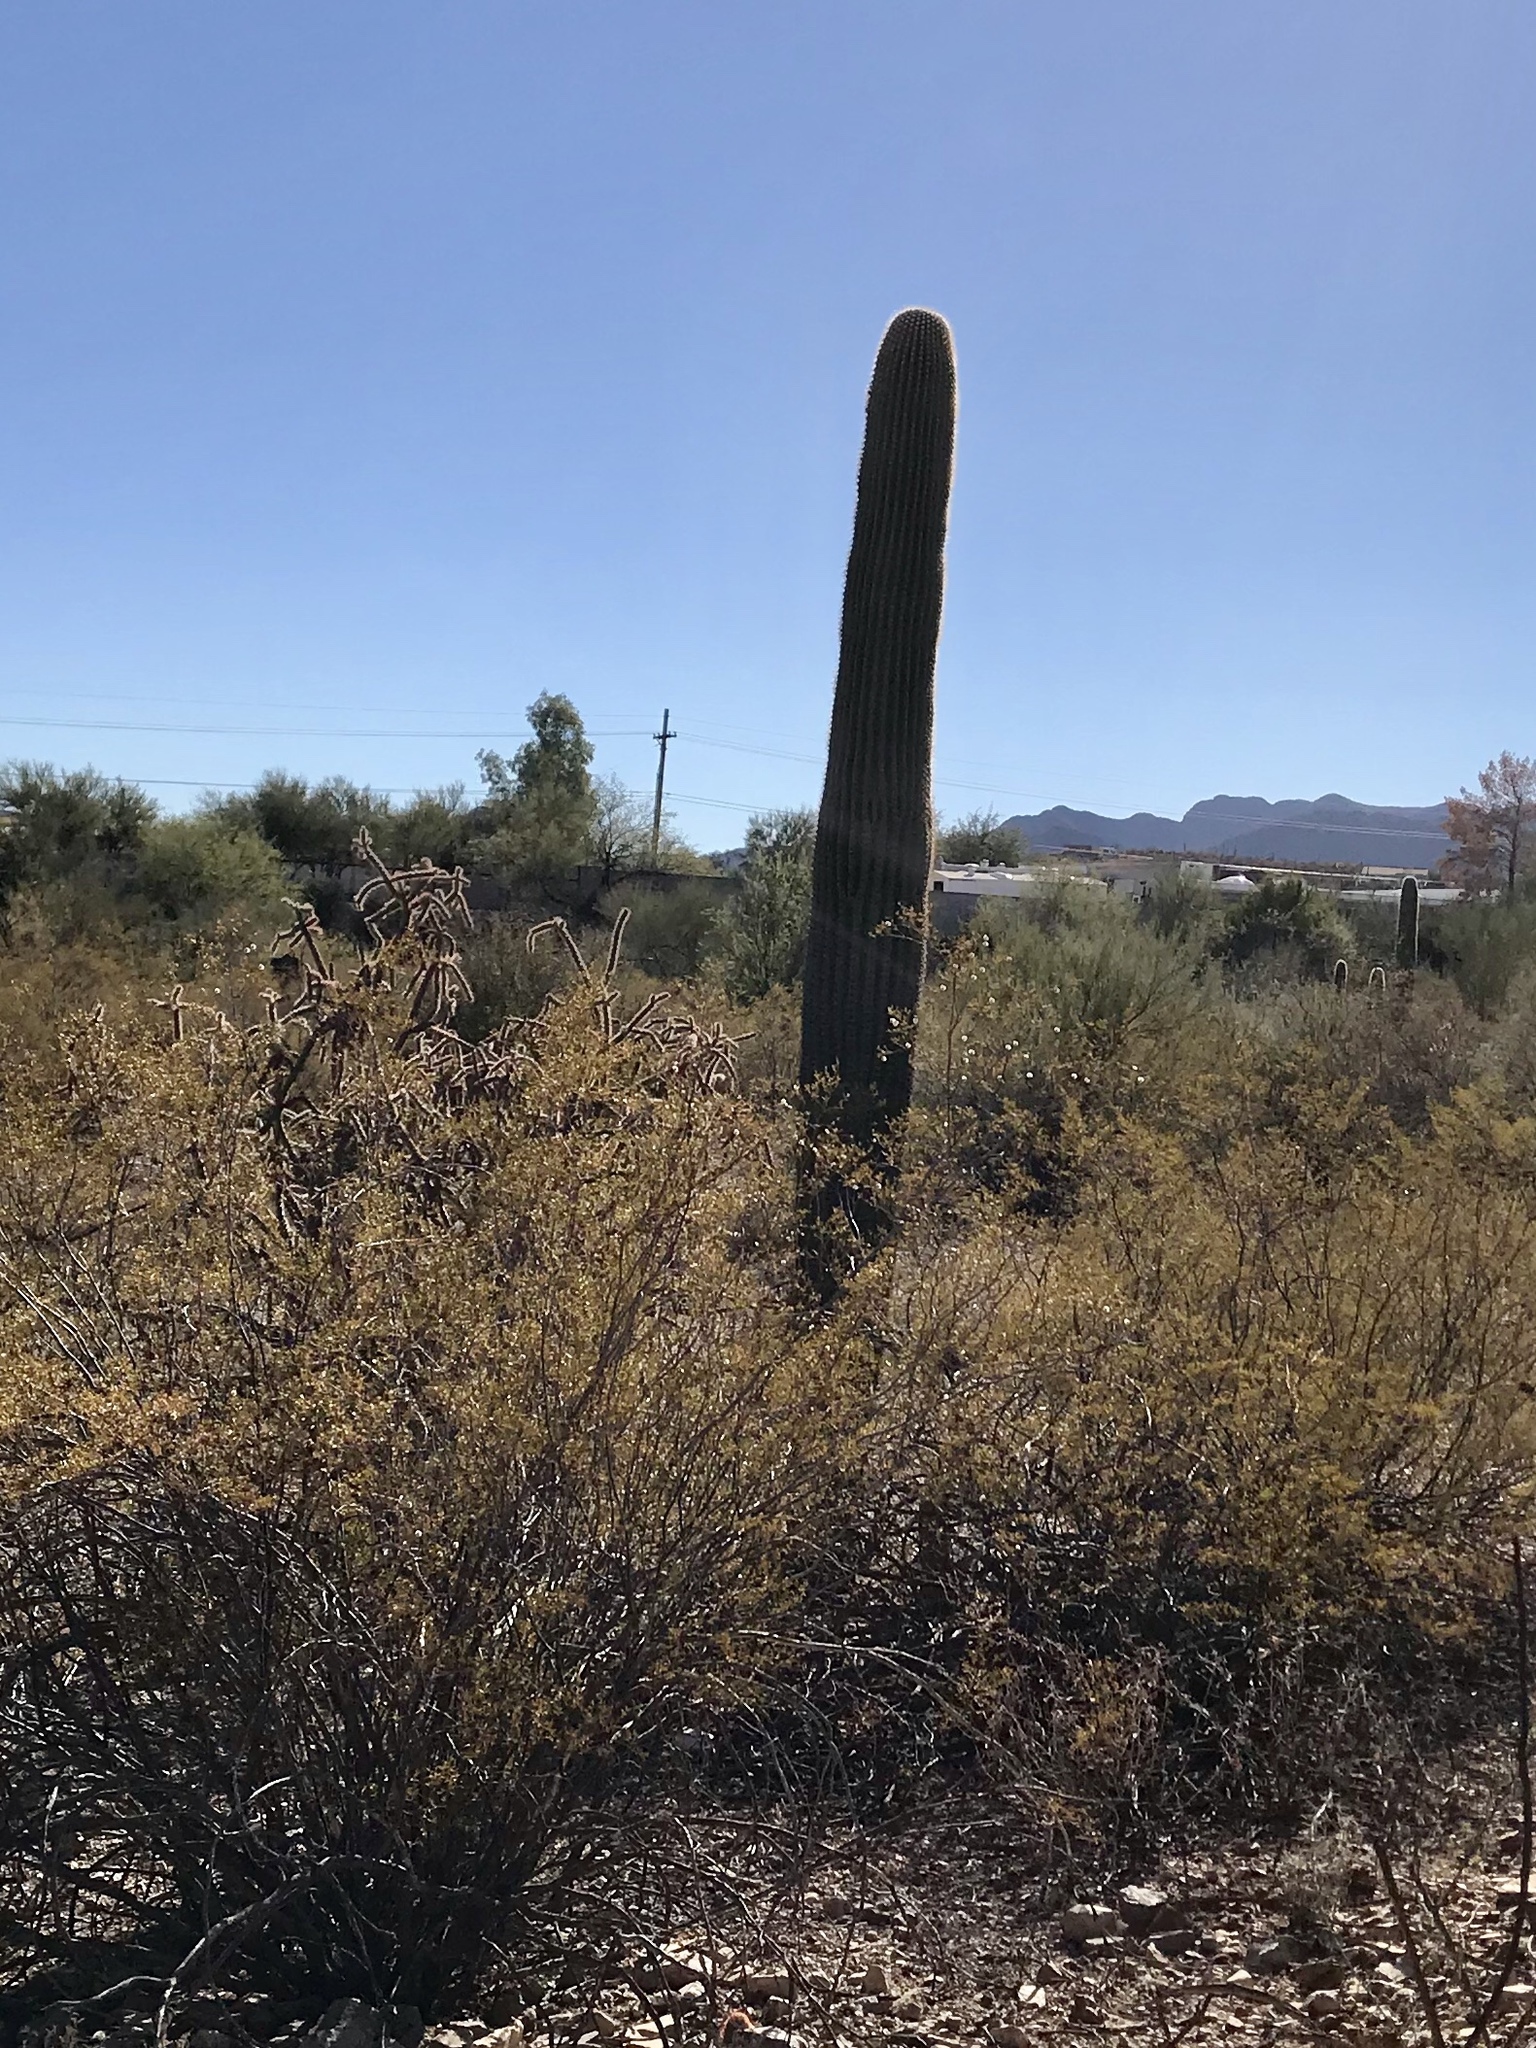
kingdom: Plantae
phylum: Tracheophyta
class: Magnoliopsida
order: Caryophyllales
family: Cactaceae
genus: Carnegiea
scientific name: Carnegiea gigantea
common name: Saguaro
